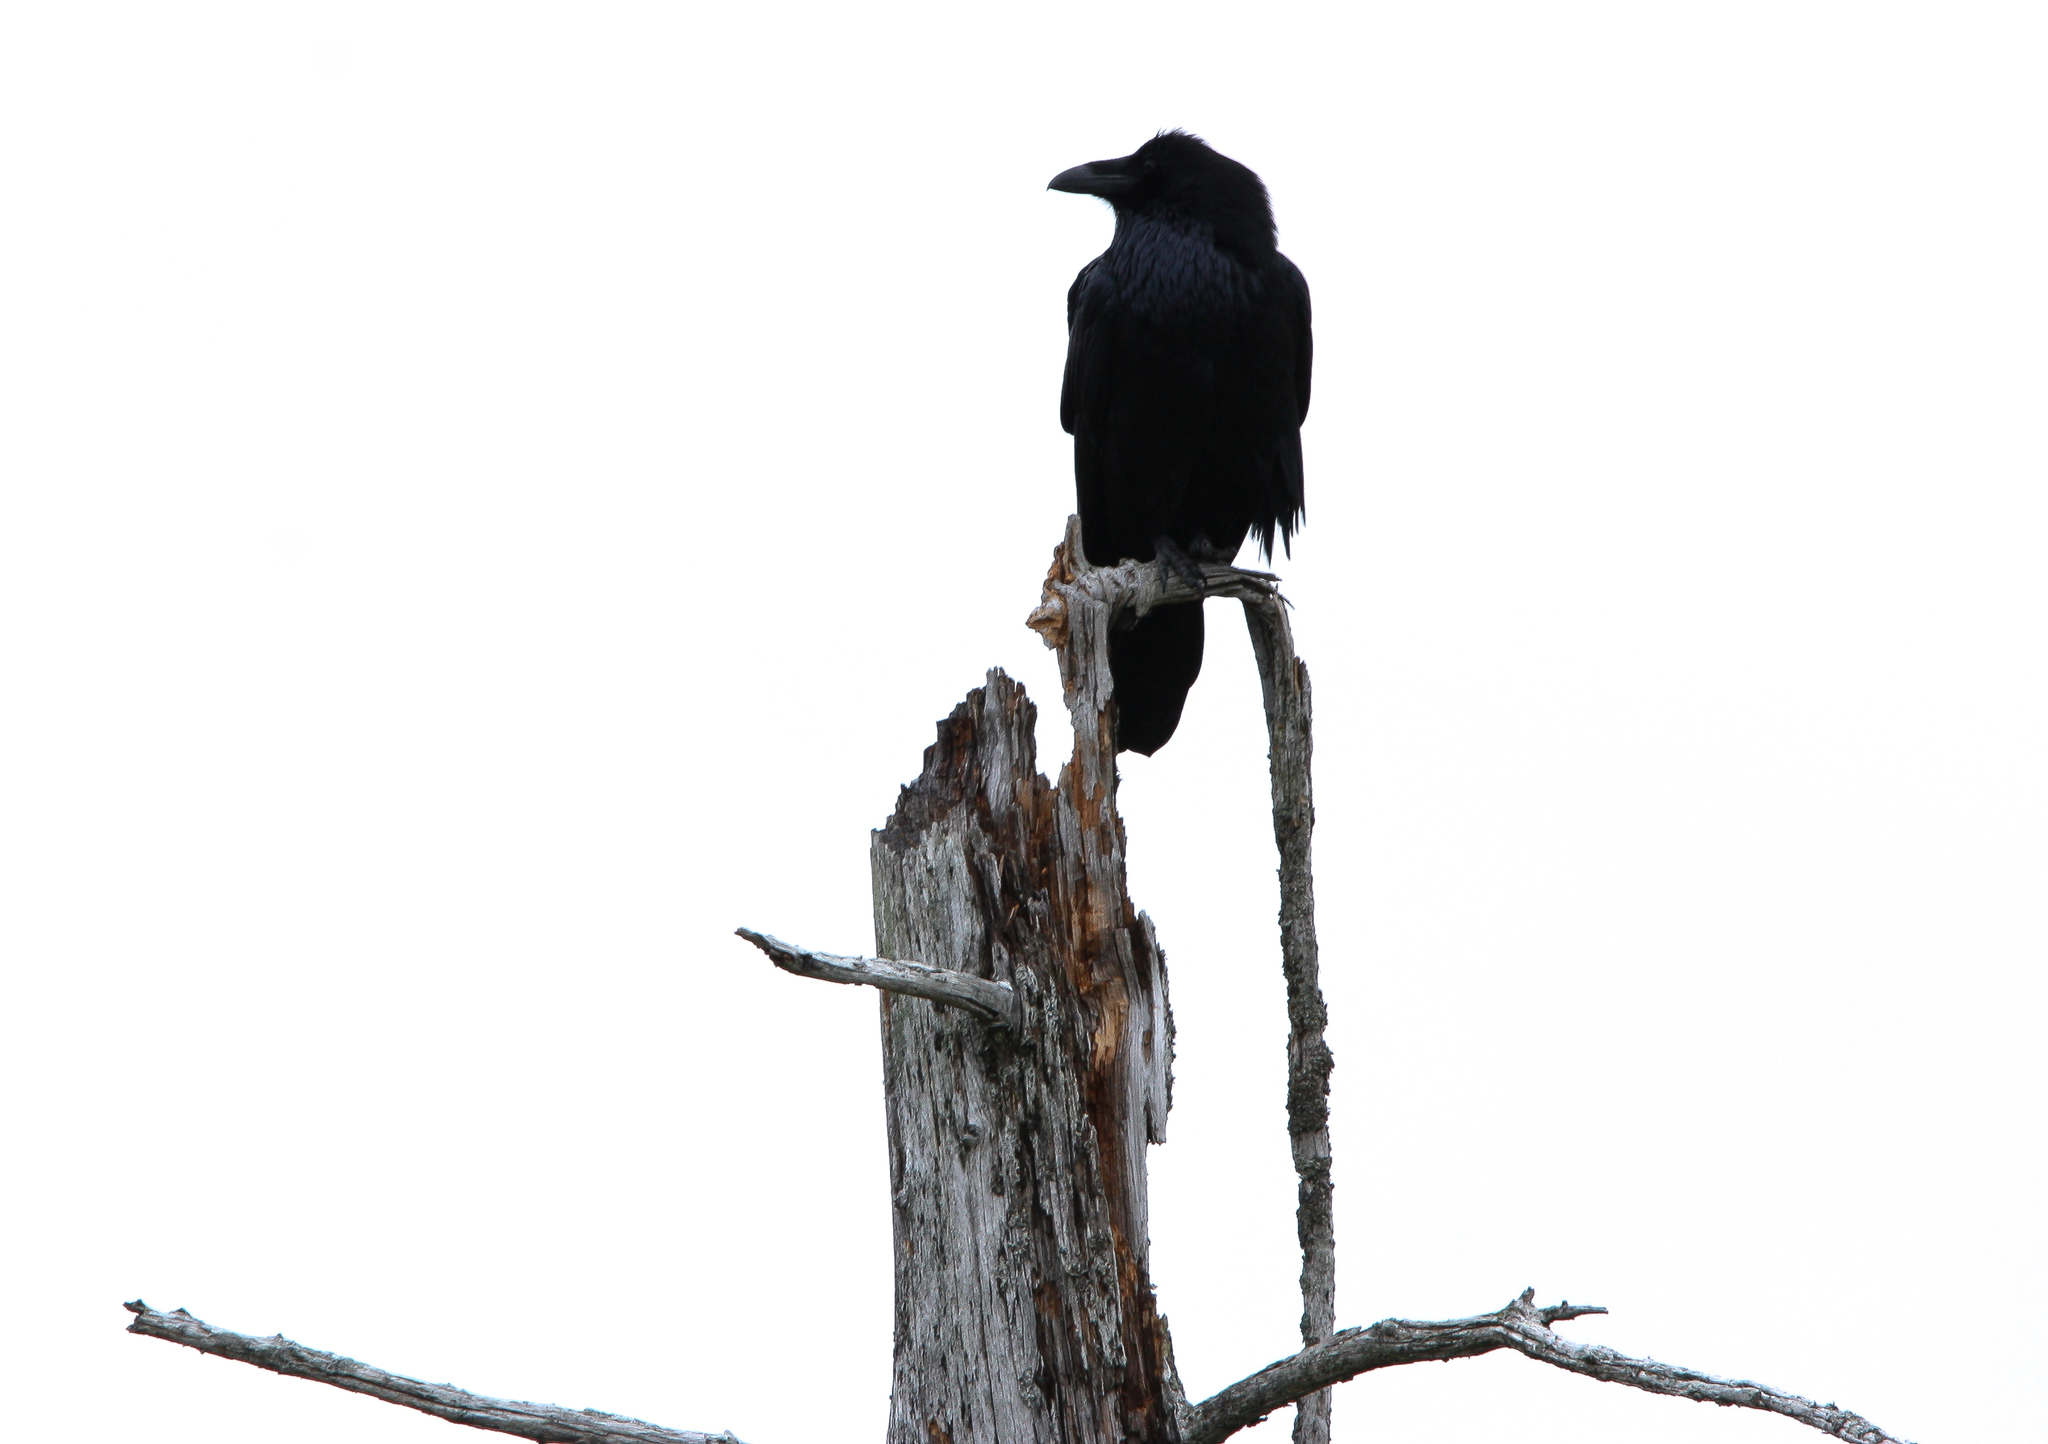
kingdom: Animalia
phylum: Chordata
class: Aves
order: Passeriformes
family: Corvidae
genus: Corvus
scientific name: Corvus corax
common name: Common raven
